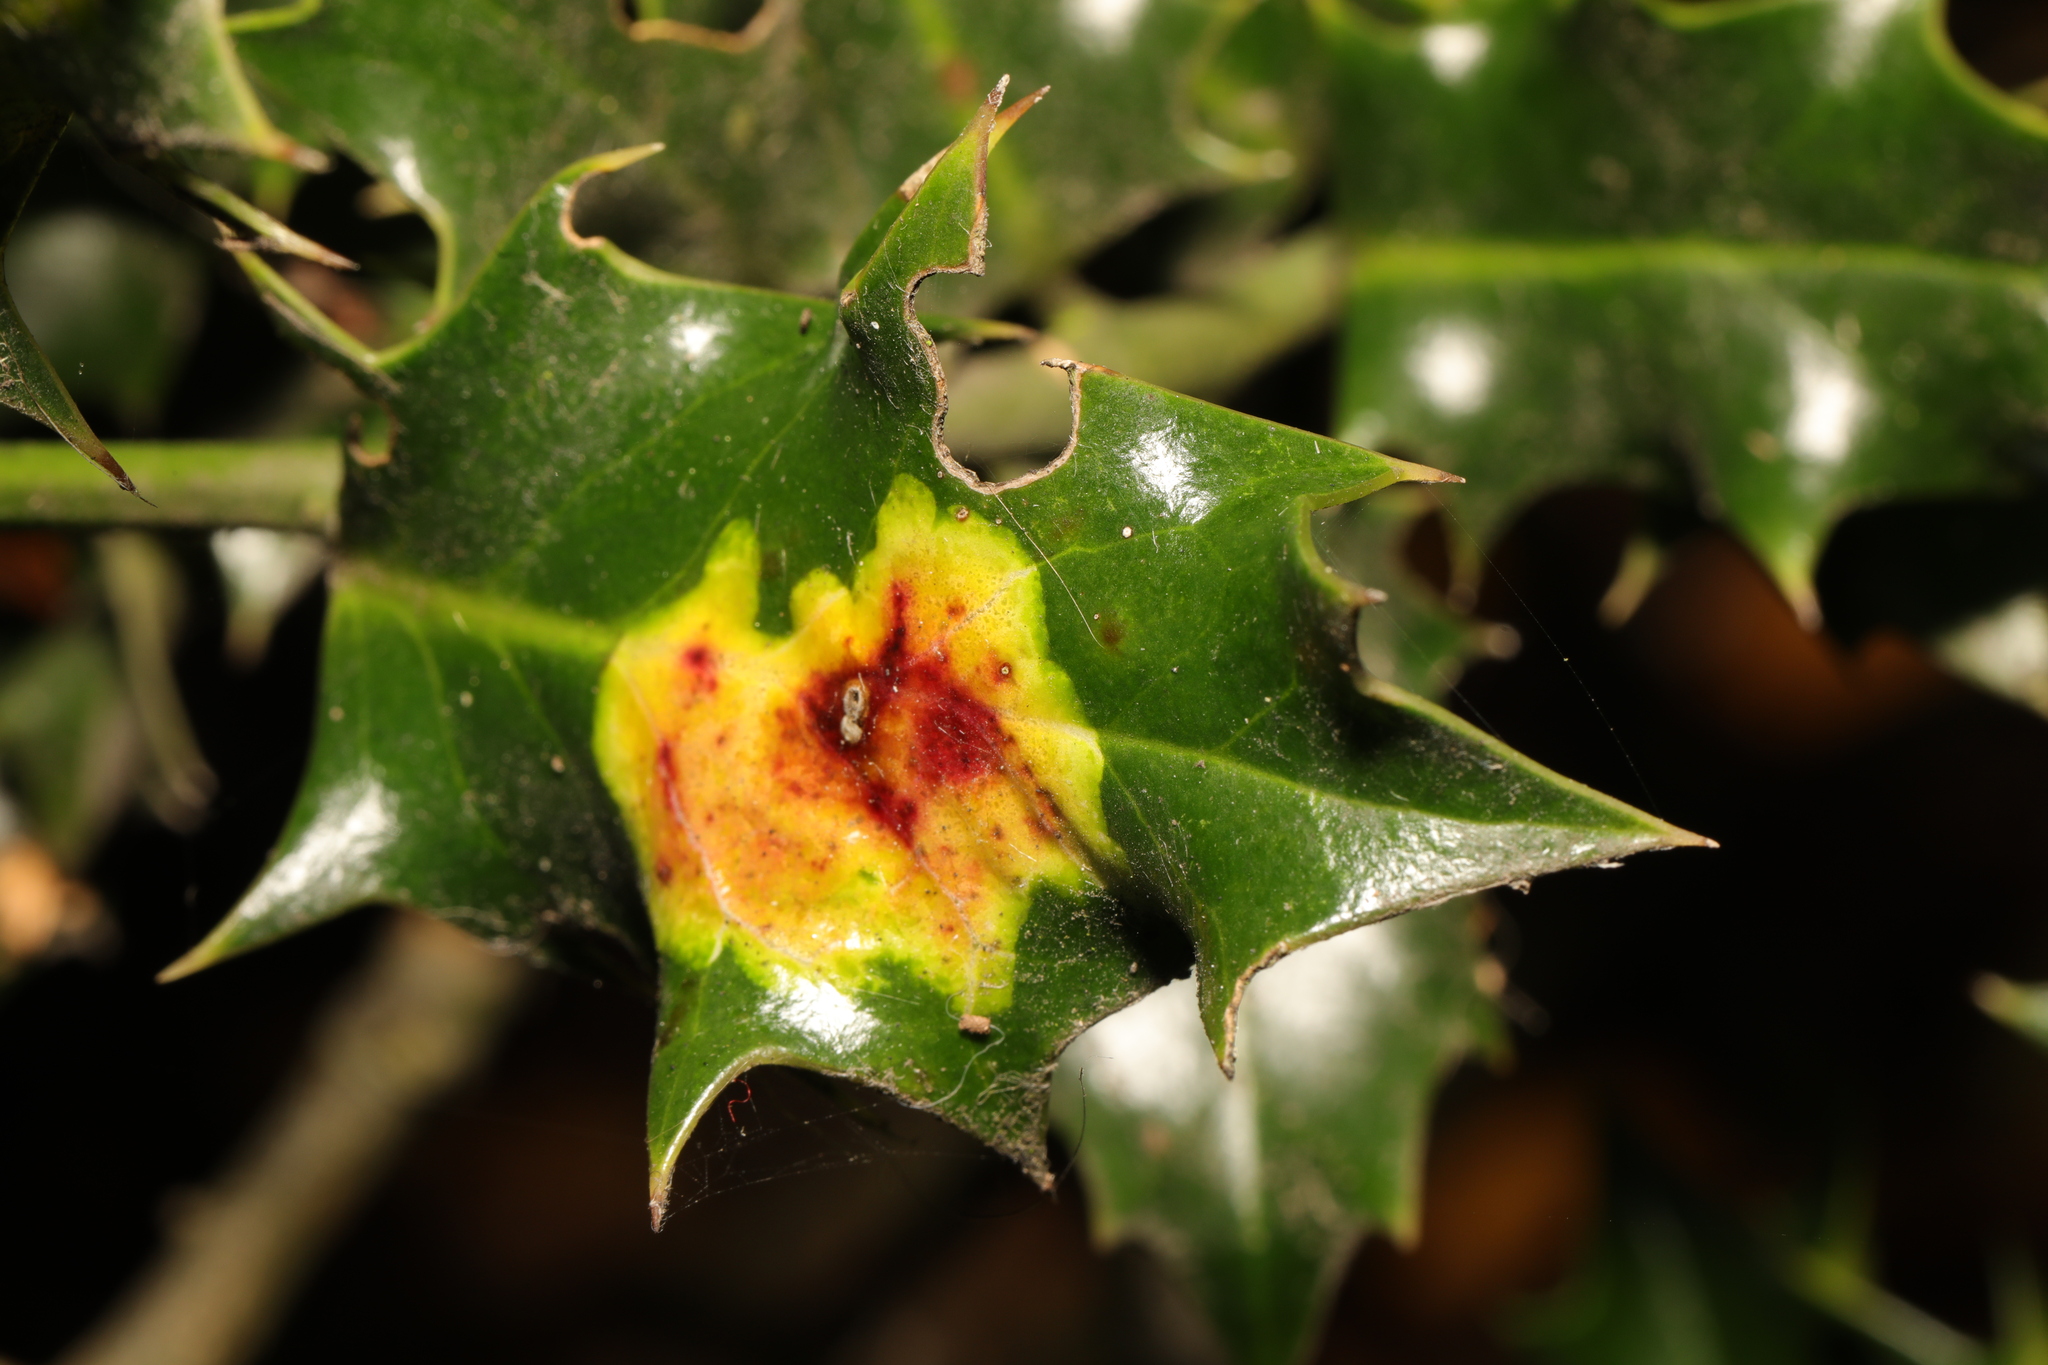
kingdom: Animalia
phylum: Arthropoda
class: Insecta
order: Diptera
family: Agromyzidae
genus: Phytomyza
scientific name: Phytomyza ilicis
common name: Holly leafminer
